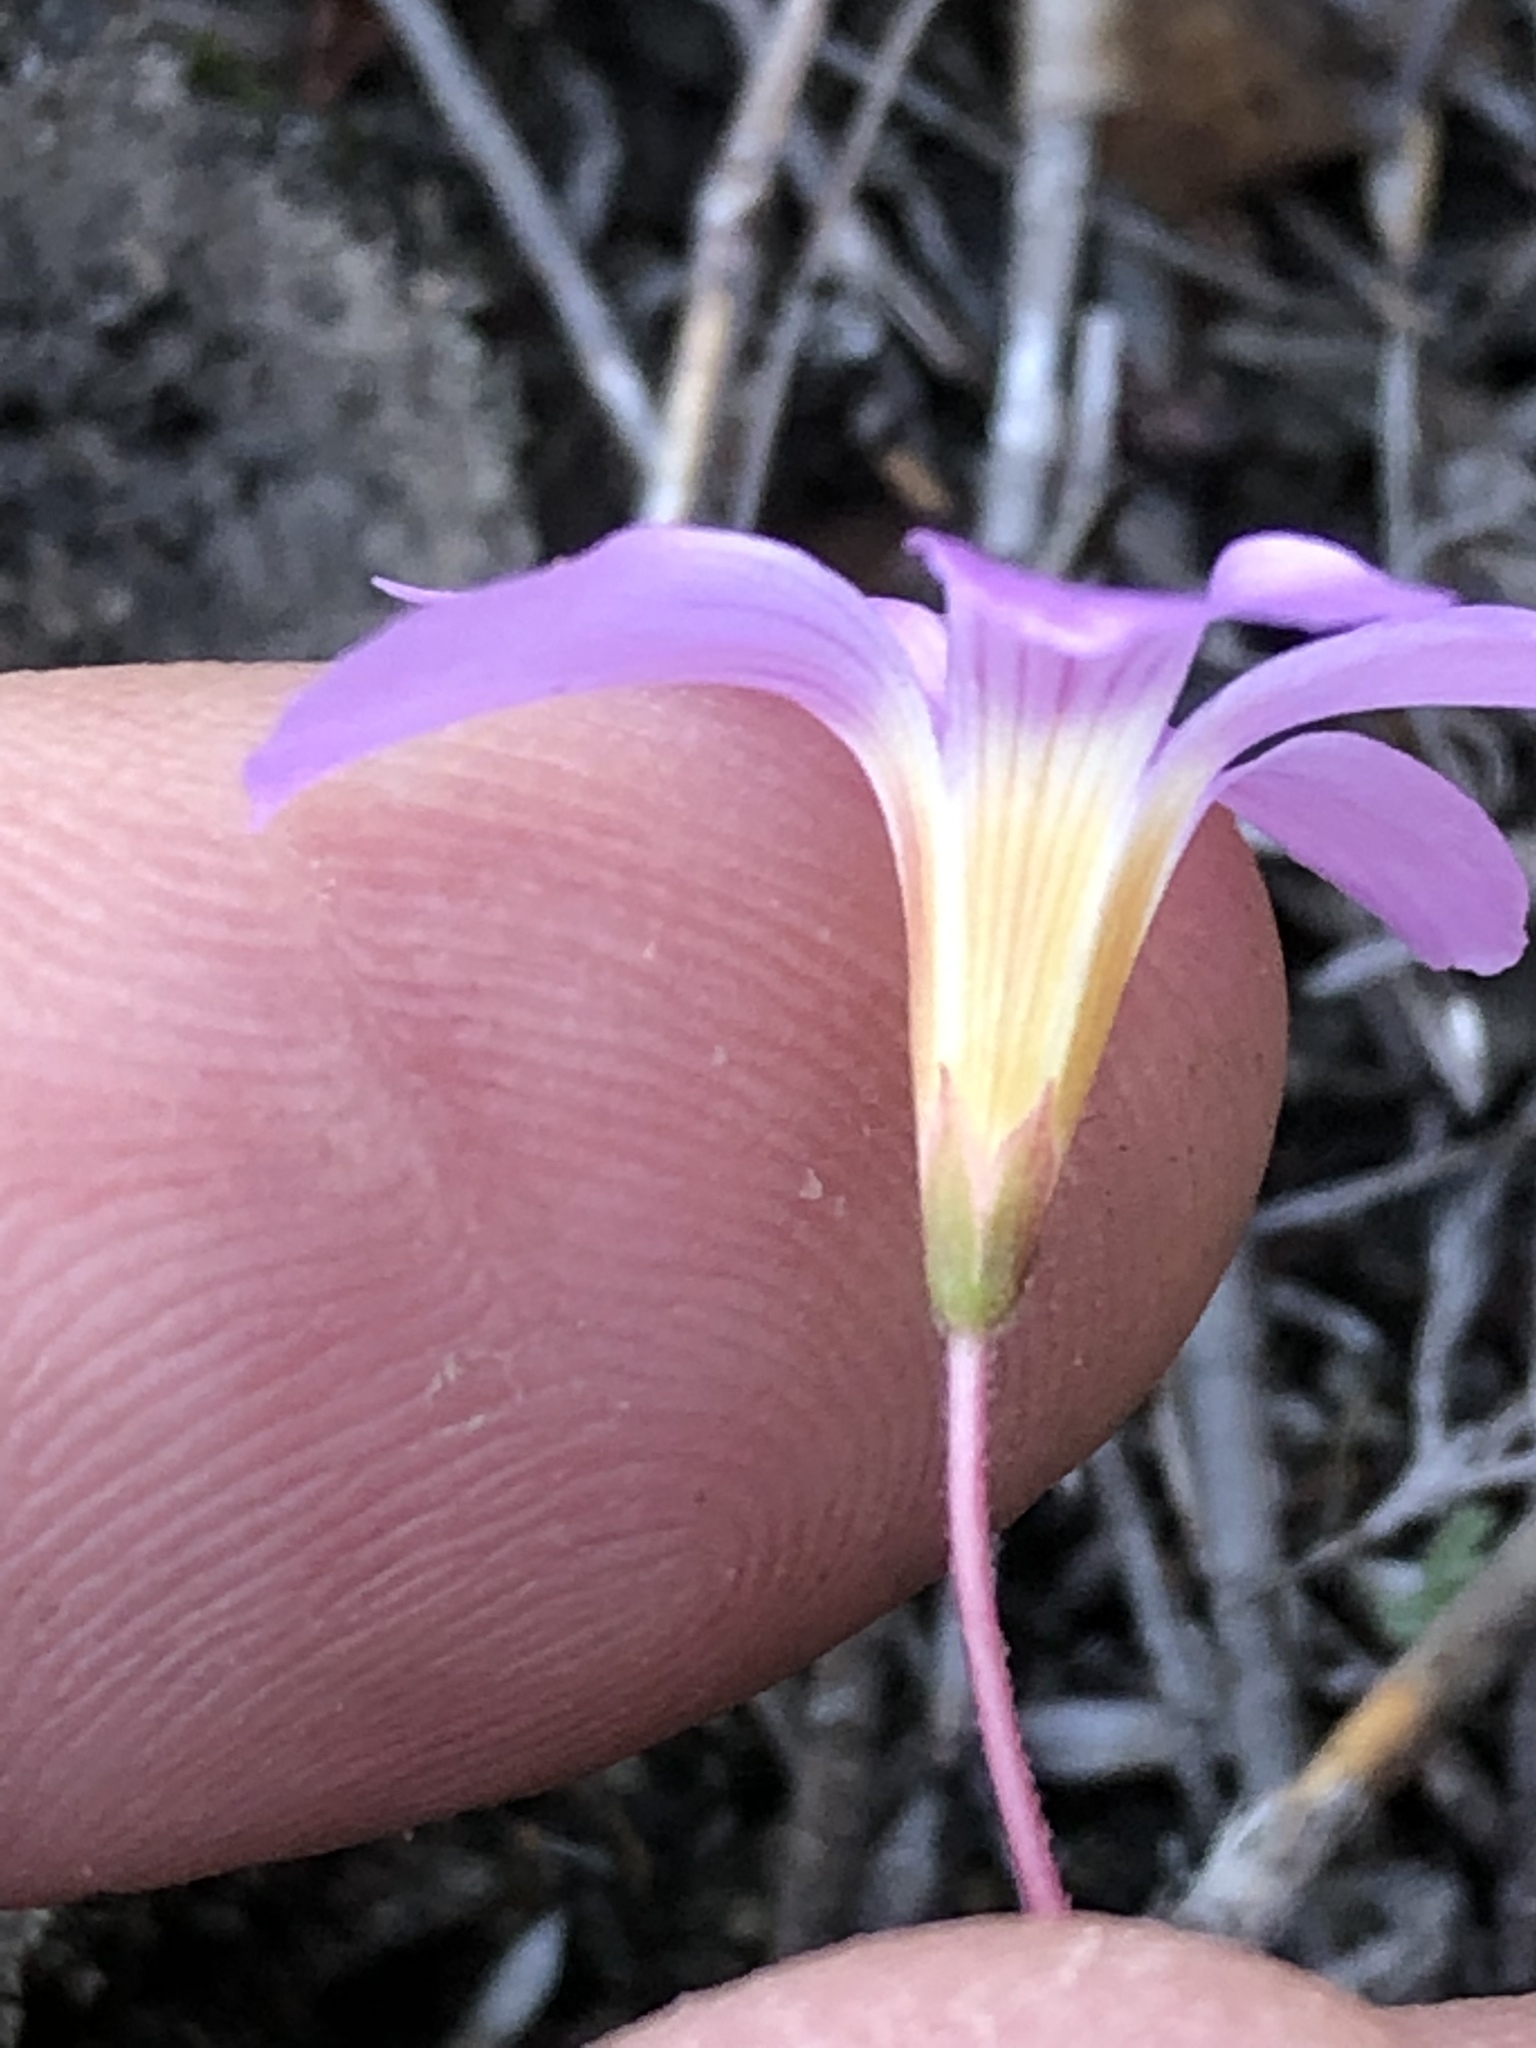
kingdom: Plantae
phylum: Tracheophyta
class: Magnoliopsida
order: Oxalidales
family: Oxalidaceae
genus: Oxalis
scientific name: Oxalis imbricata
